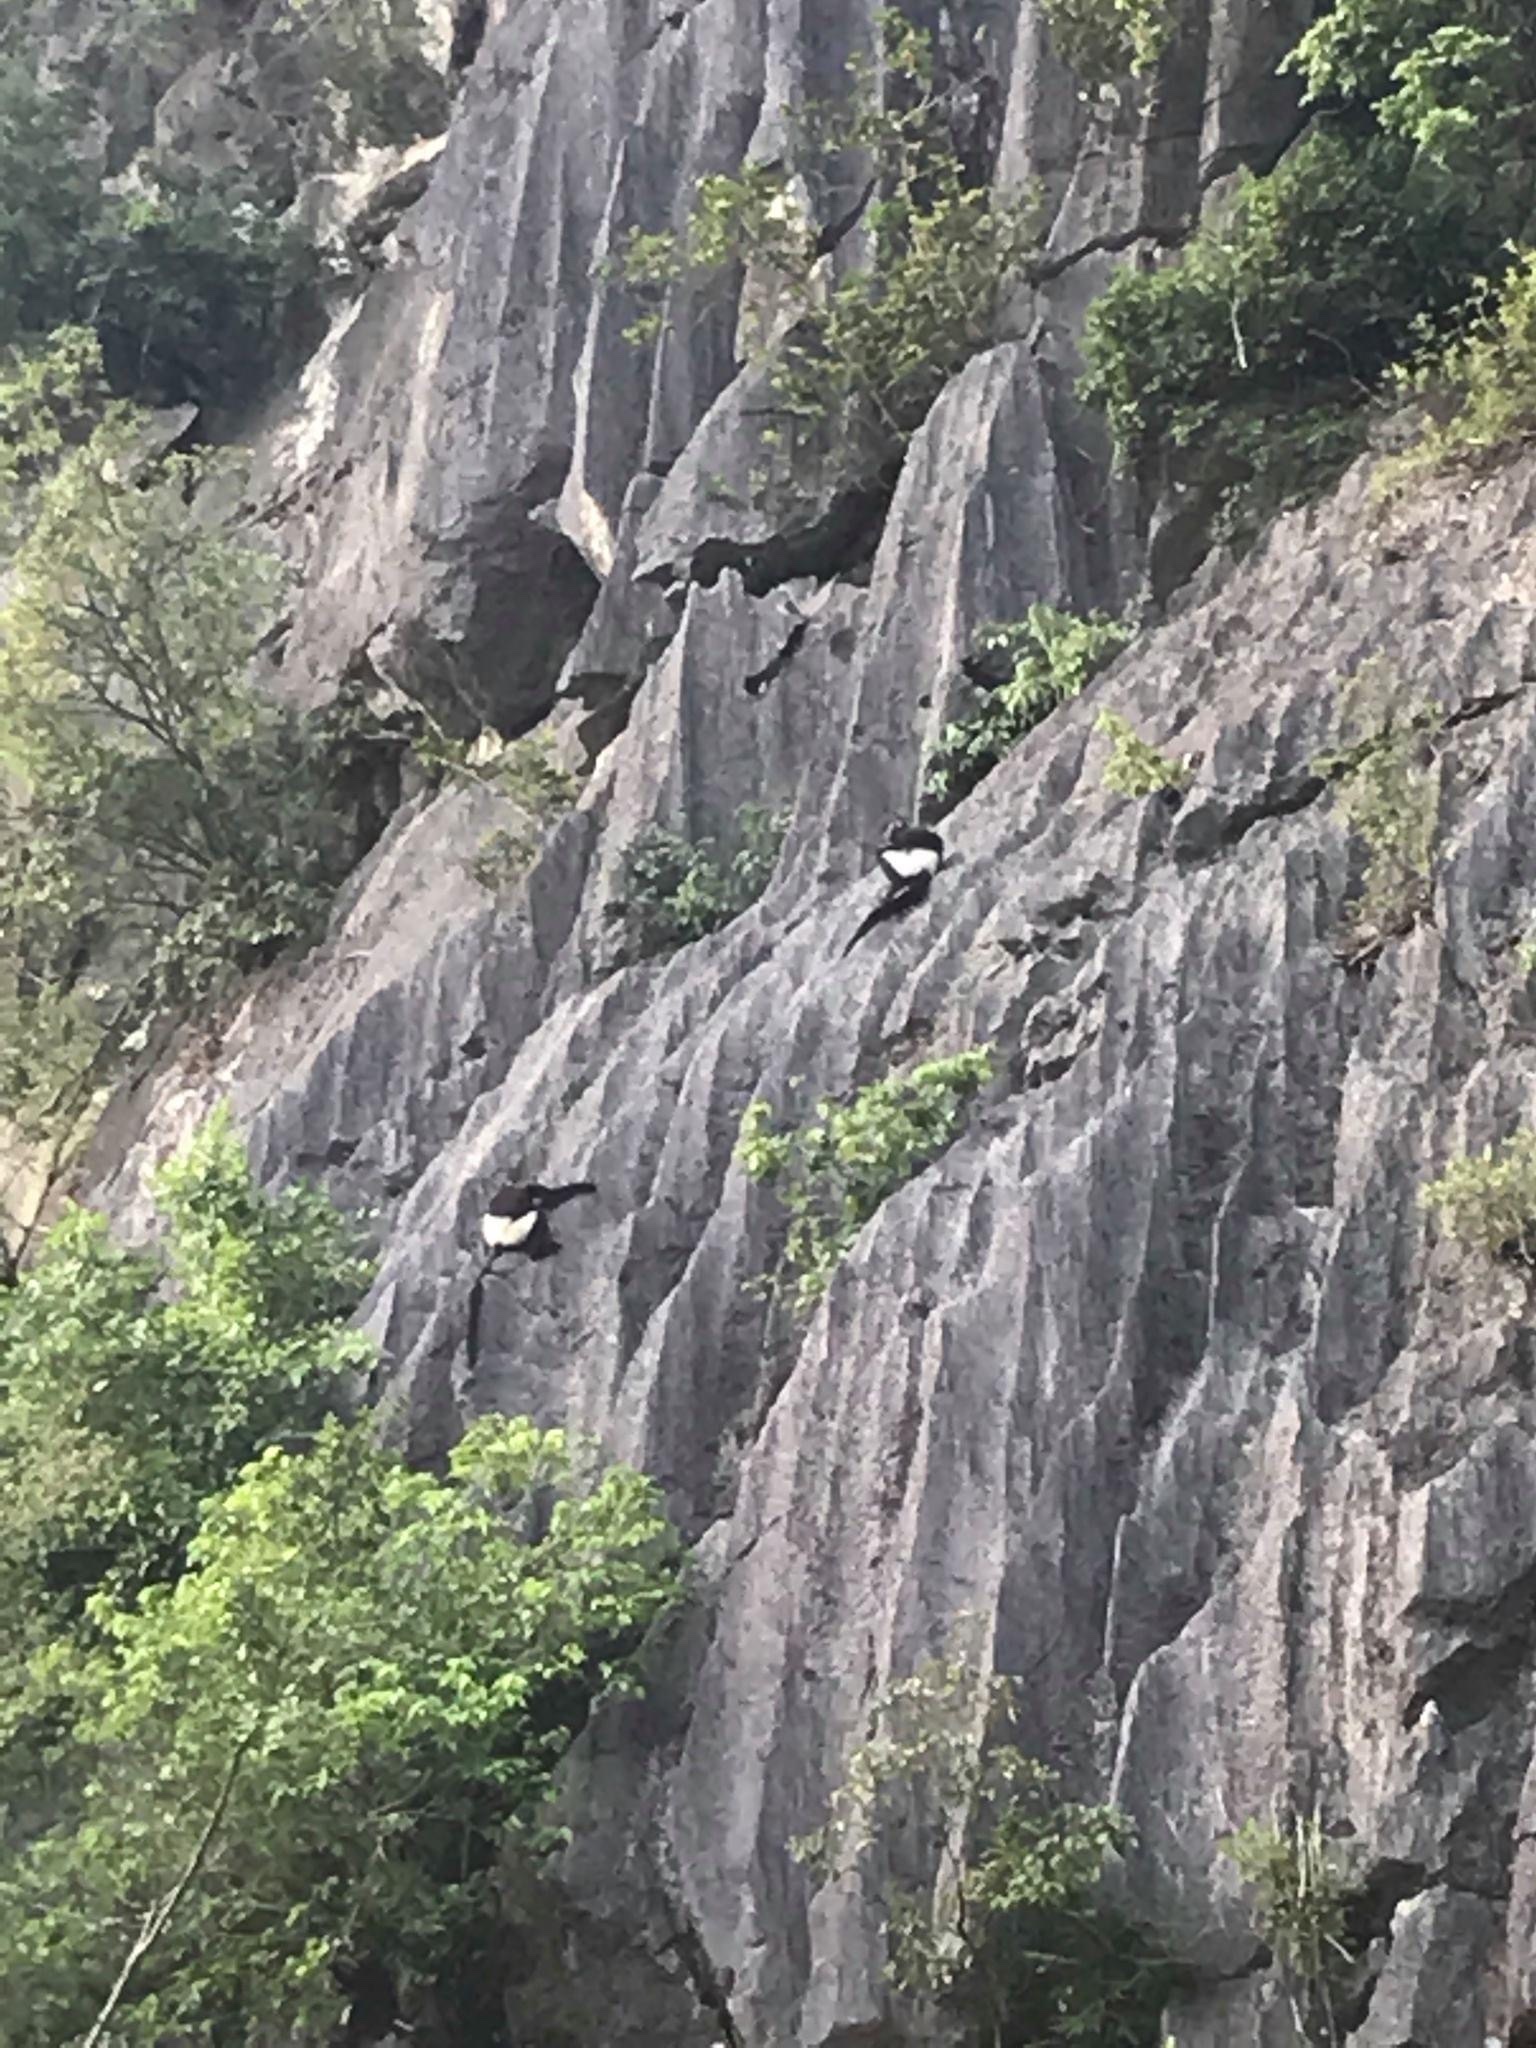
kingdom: Animalia
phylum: Chordata
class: Mammalia
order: Primates
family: Cercopithecidae
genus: Trachypithecus
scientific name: Trachypithecus delacouri
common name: Delacour's langur
